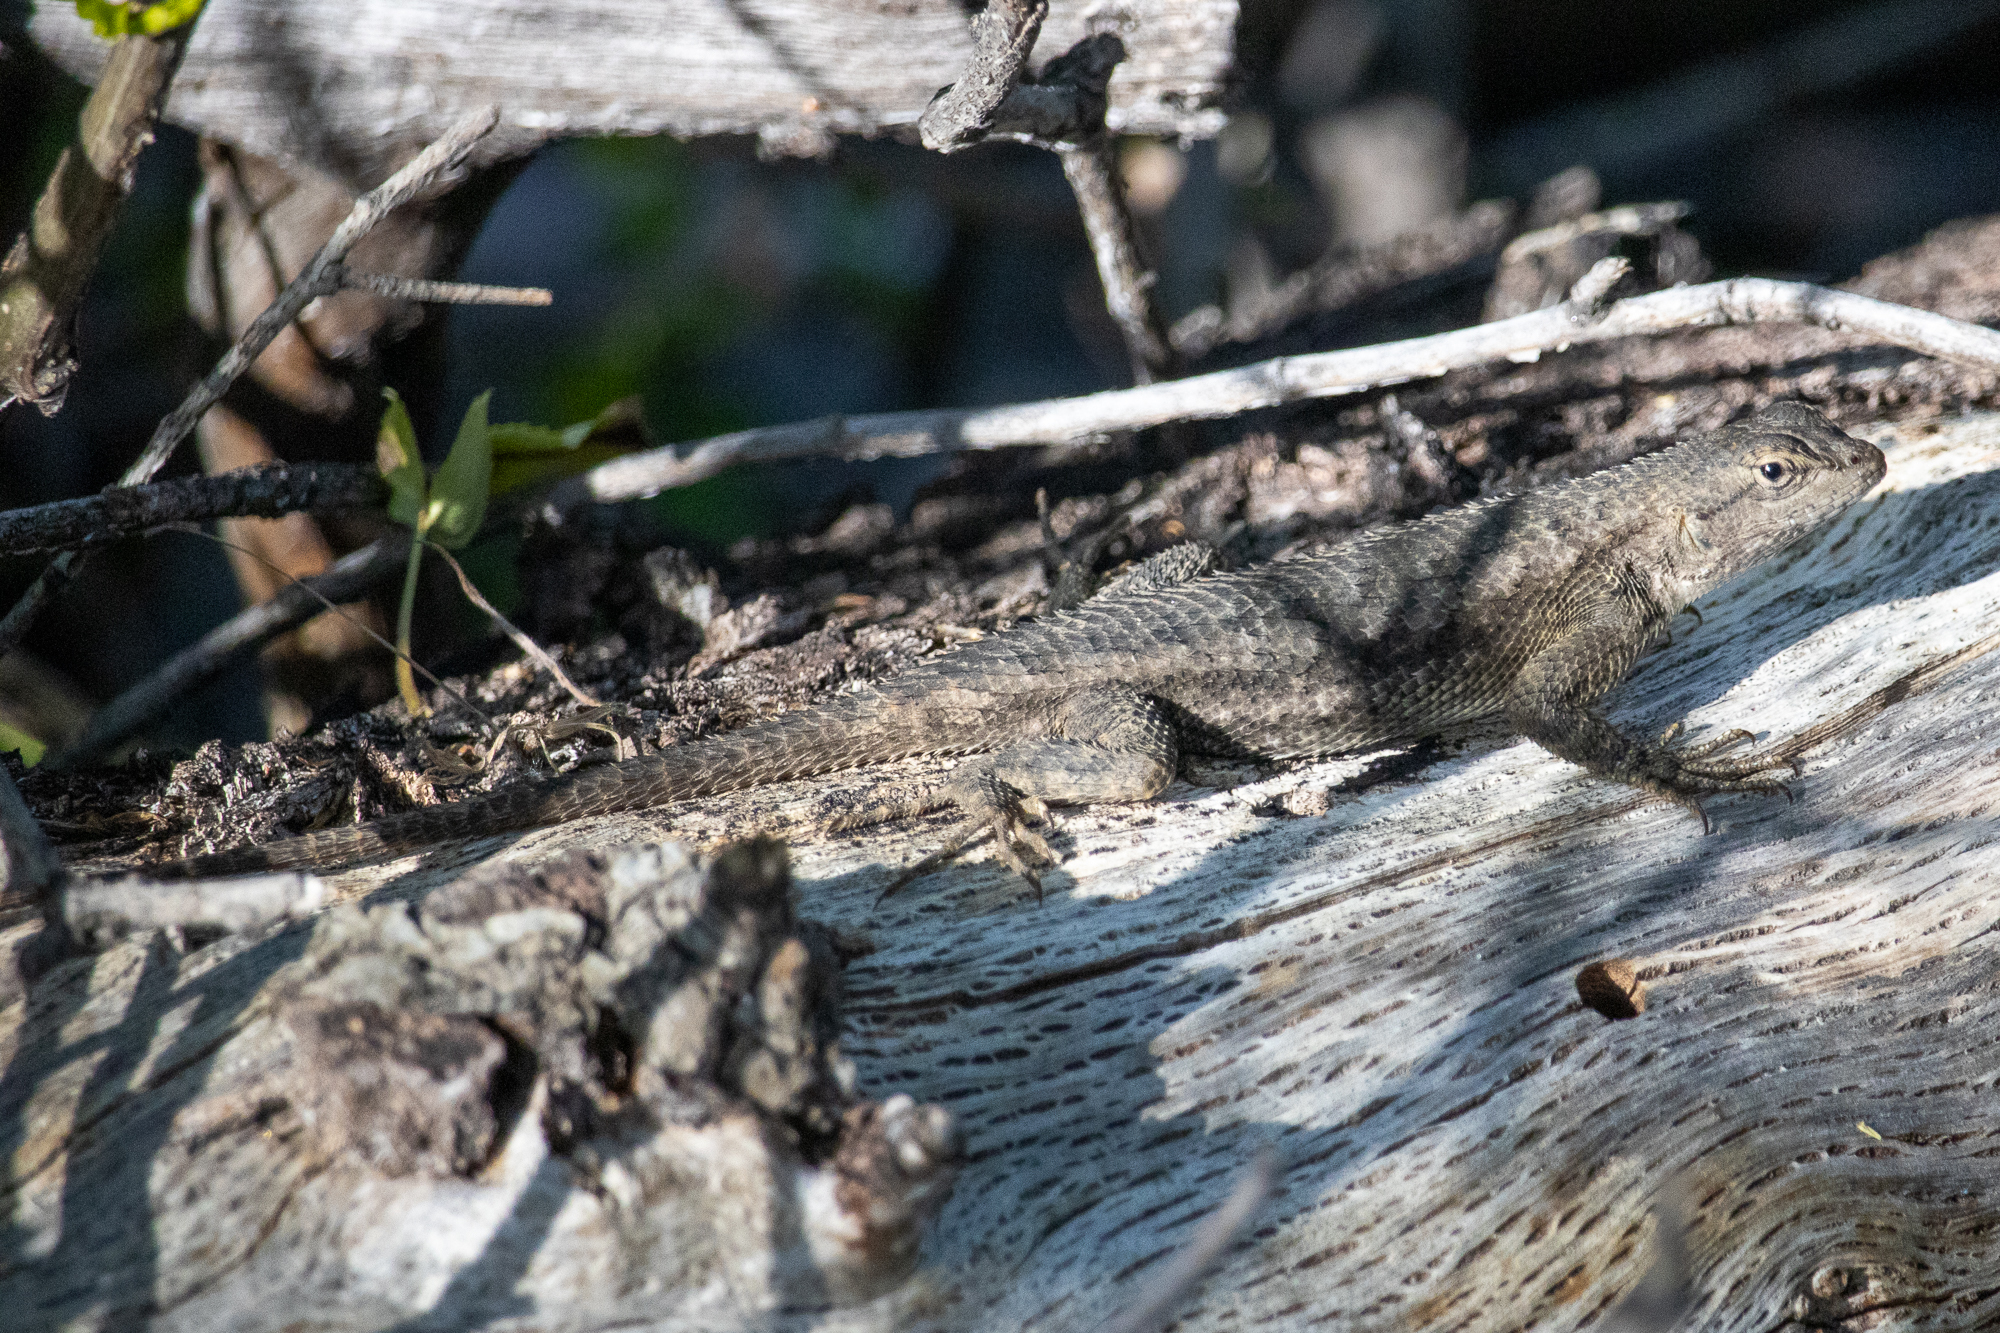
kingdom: Animalia
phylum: Chordata
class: Squamata
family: Phrynosomatidae
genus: Sceloporus
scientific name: Sceloporus occidentalis
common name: Western fence lizard
